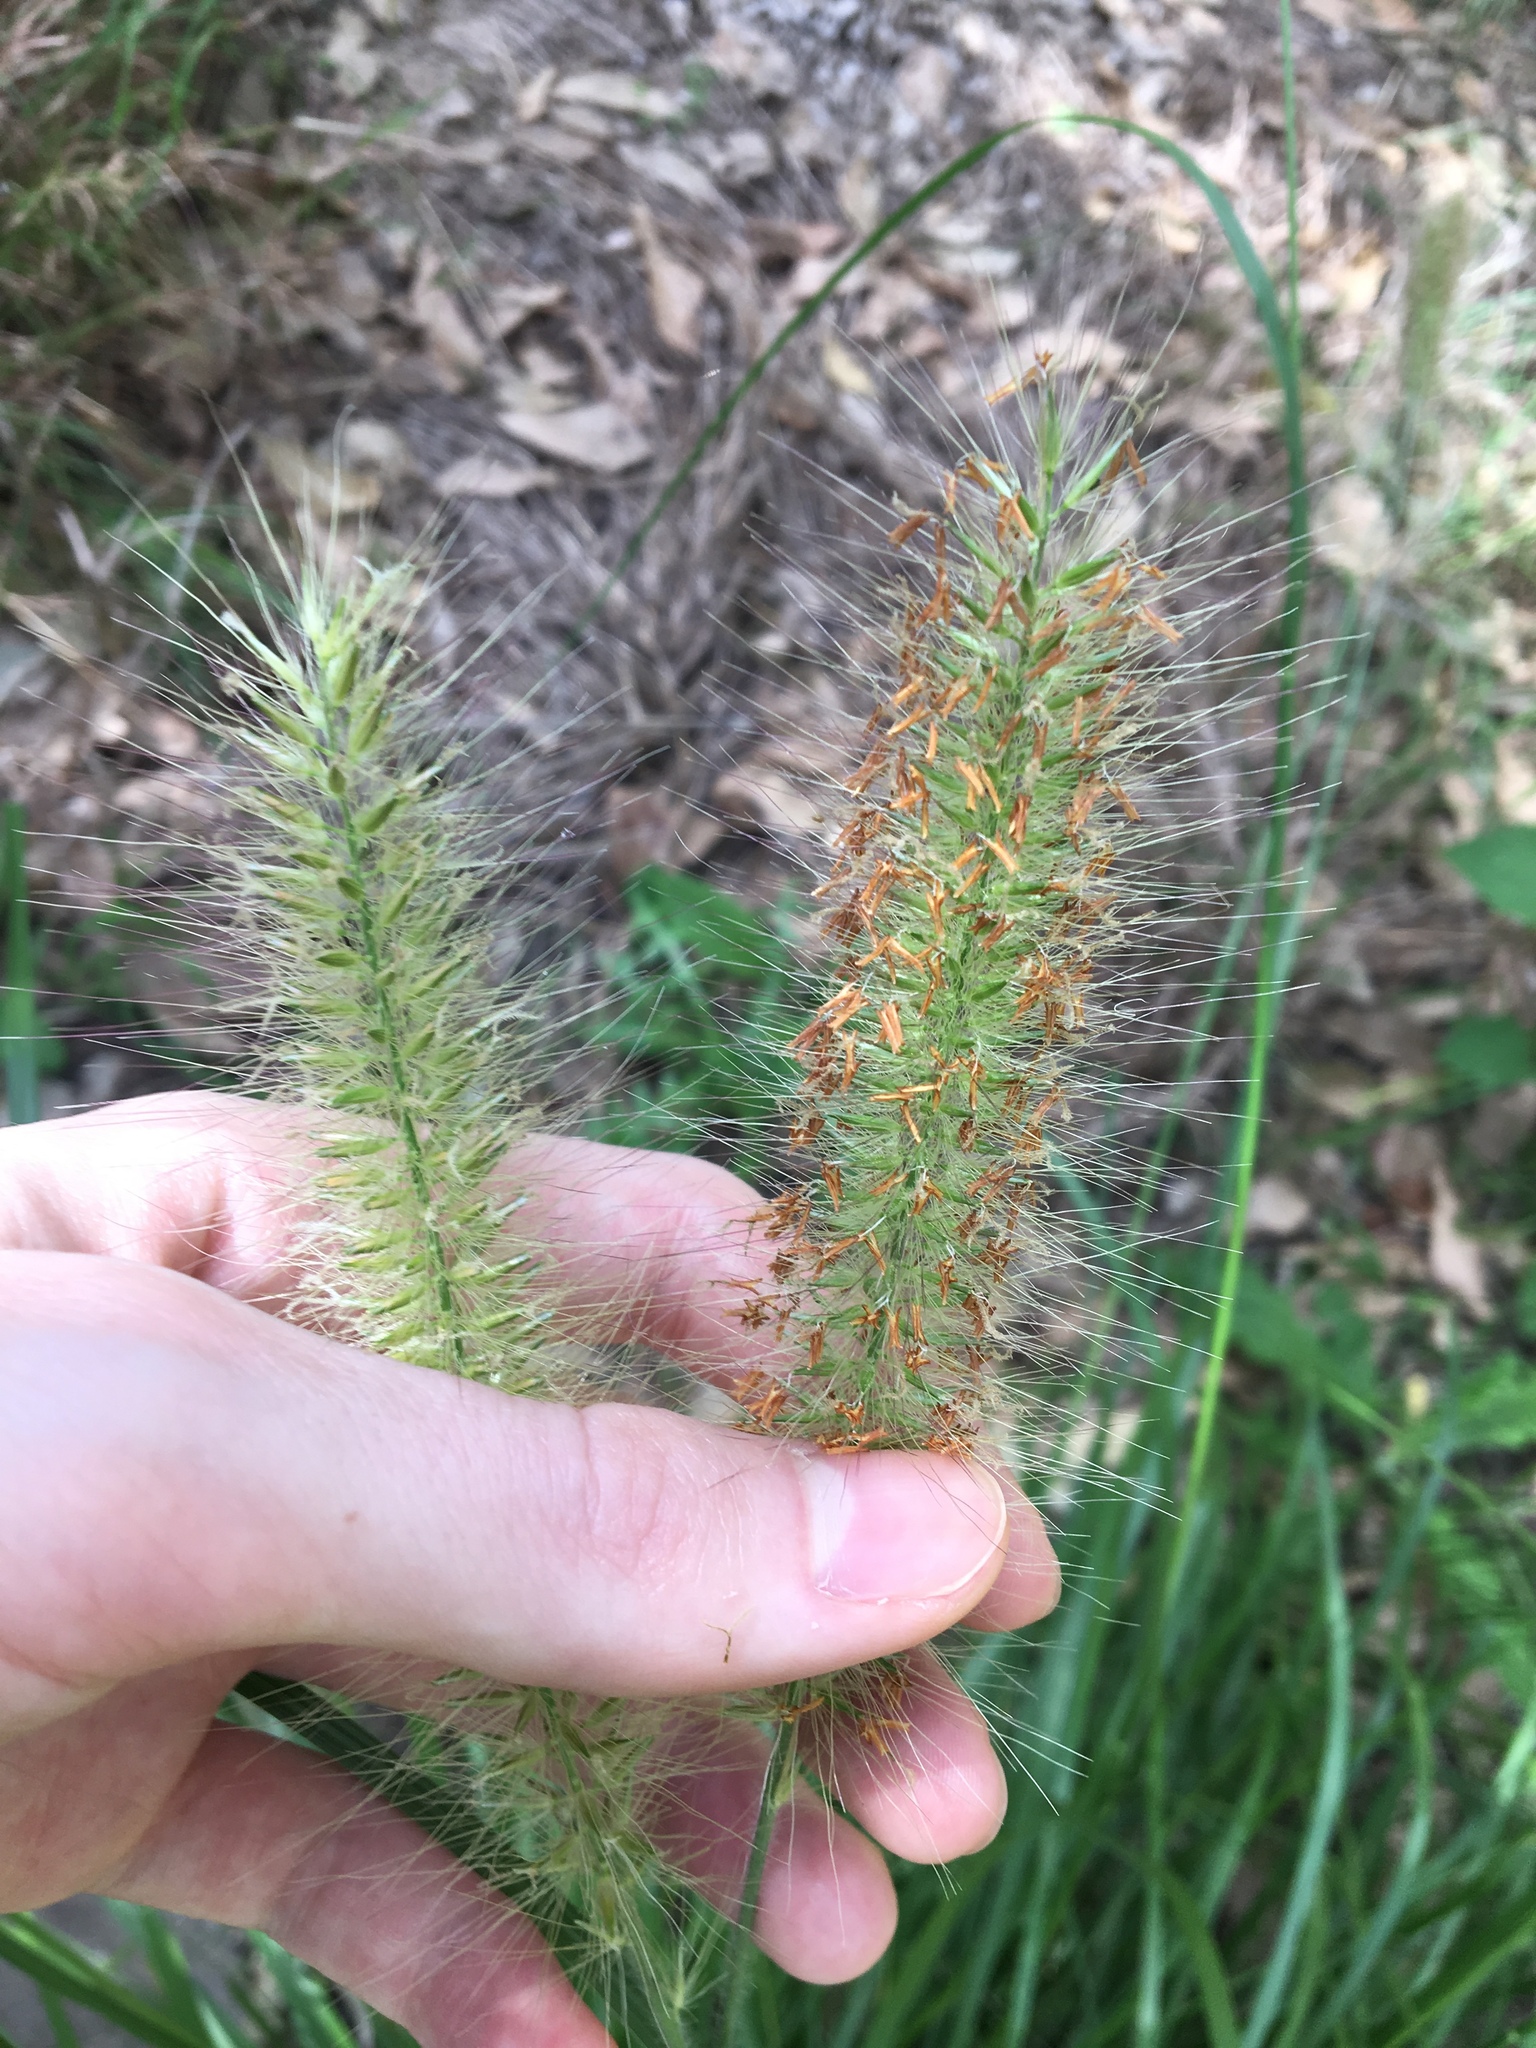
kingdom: Plantae
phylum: Tracheophyta
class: Liliopsida
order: Poales
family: Poaceae
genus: Cenchrus
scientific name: Cenchrus longisetus
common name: Feathertop
